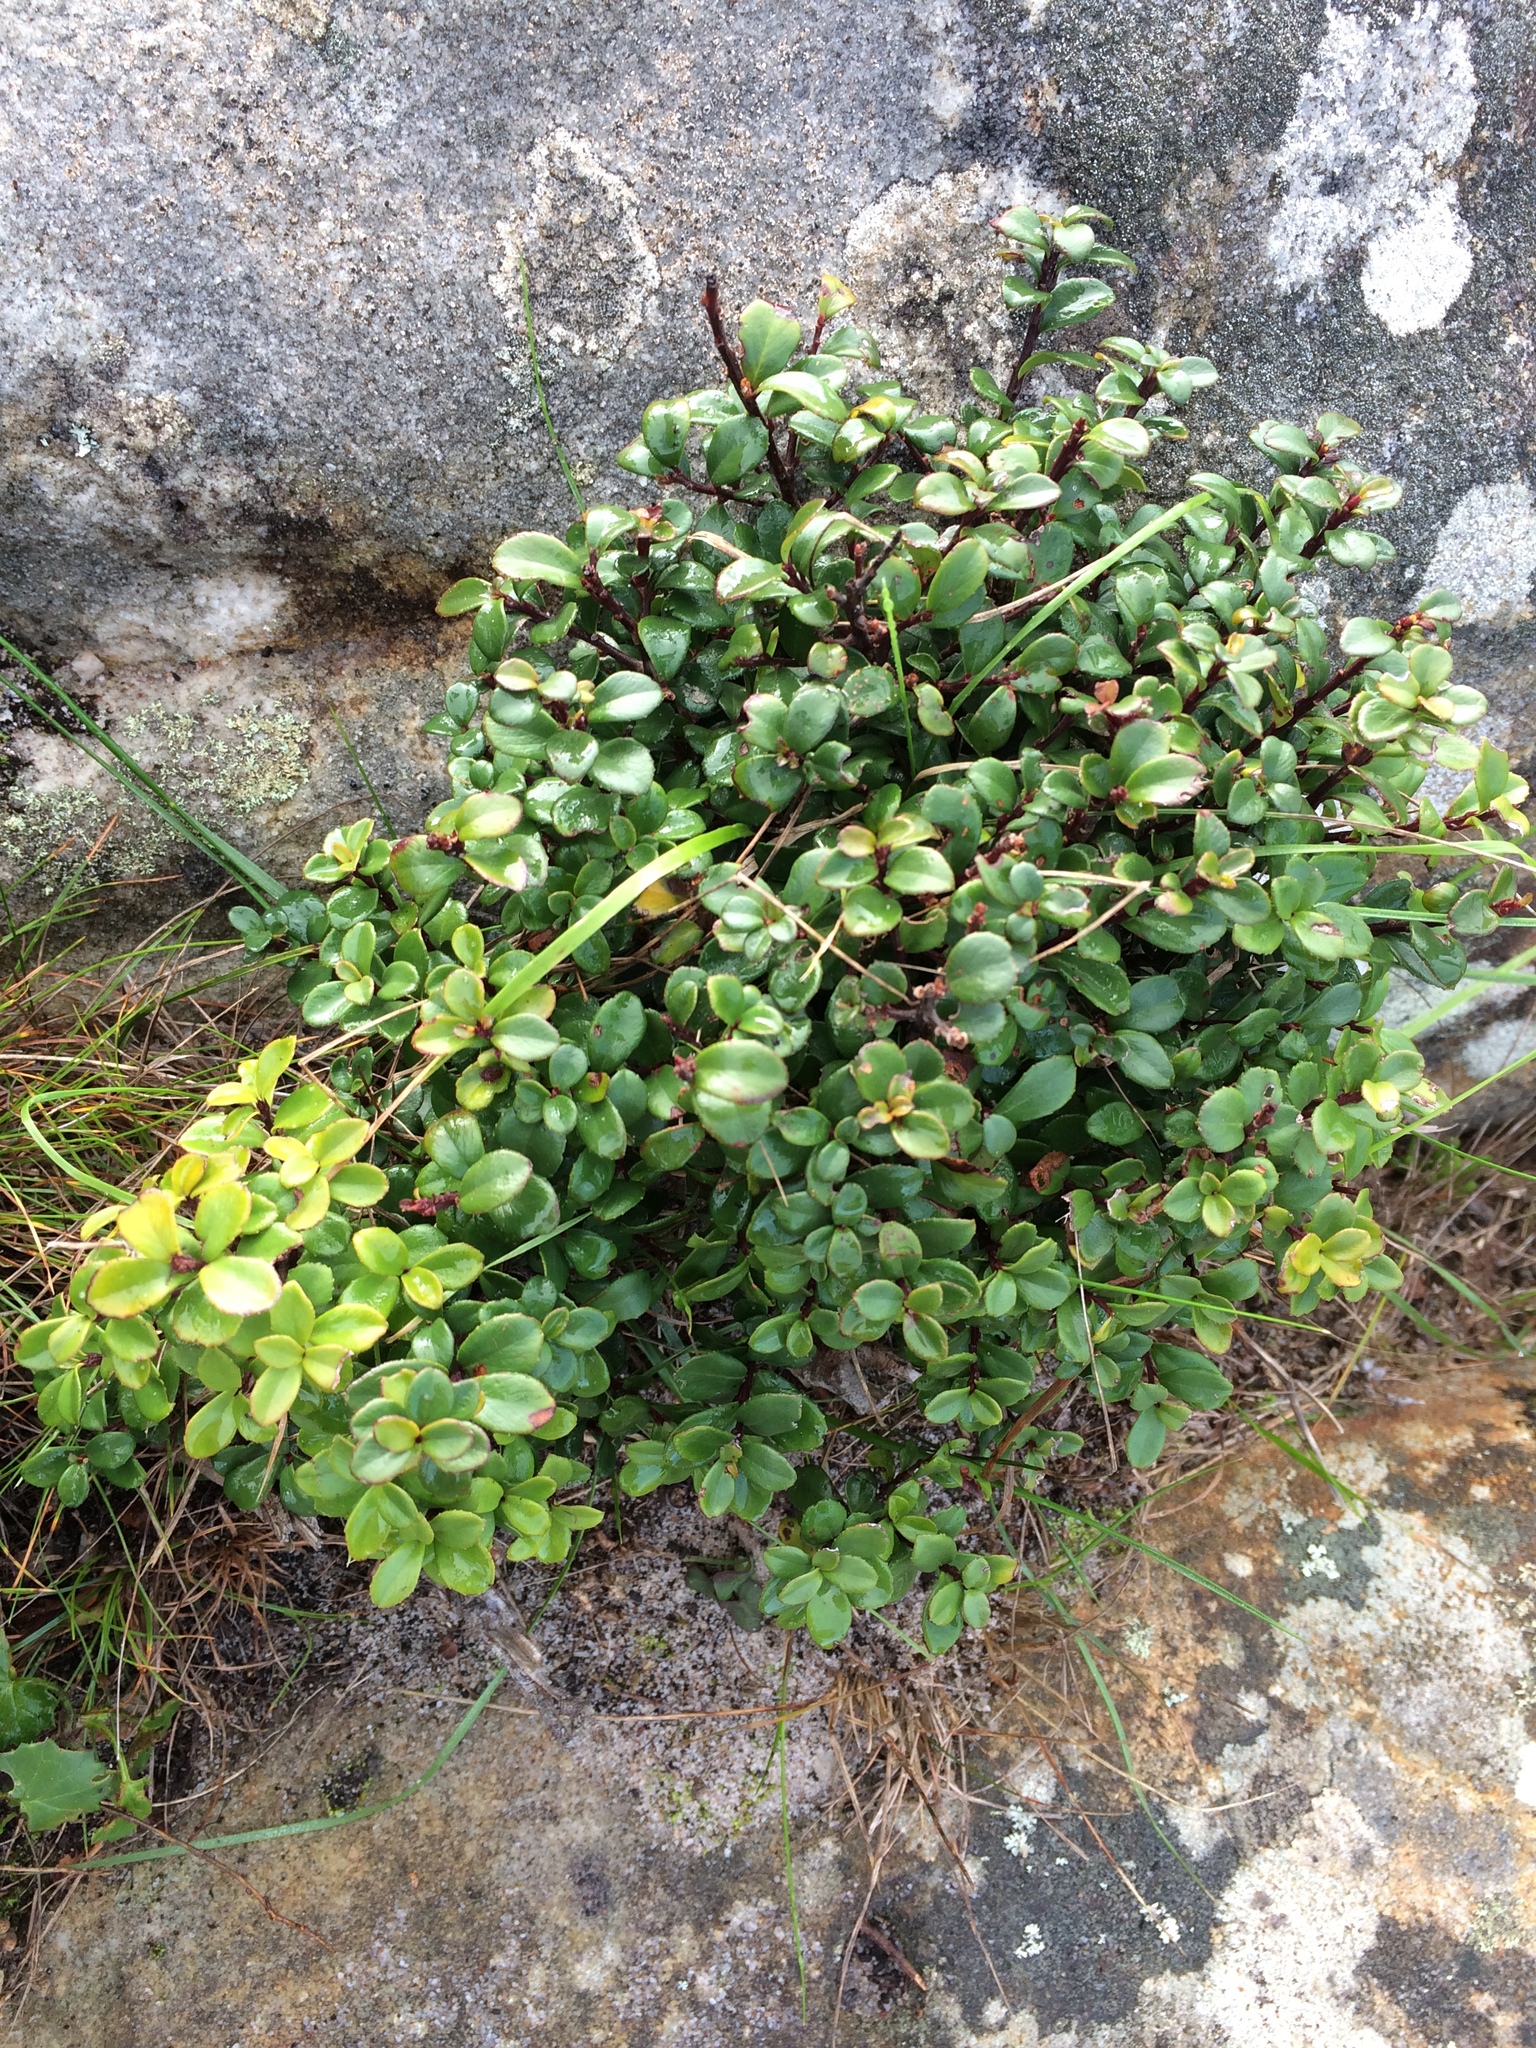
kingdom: Plantae
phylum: Tracheophyta
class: Magnoliopsida
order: Ericales
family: Primulaceae
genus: Myrsine
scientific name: Myrsine africana
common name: African-boxwood
